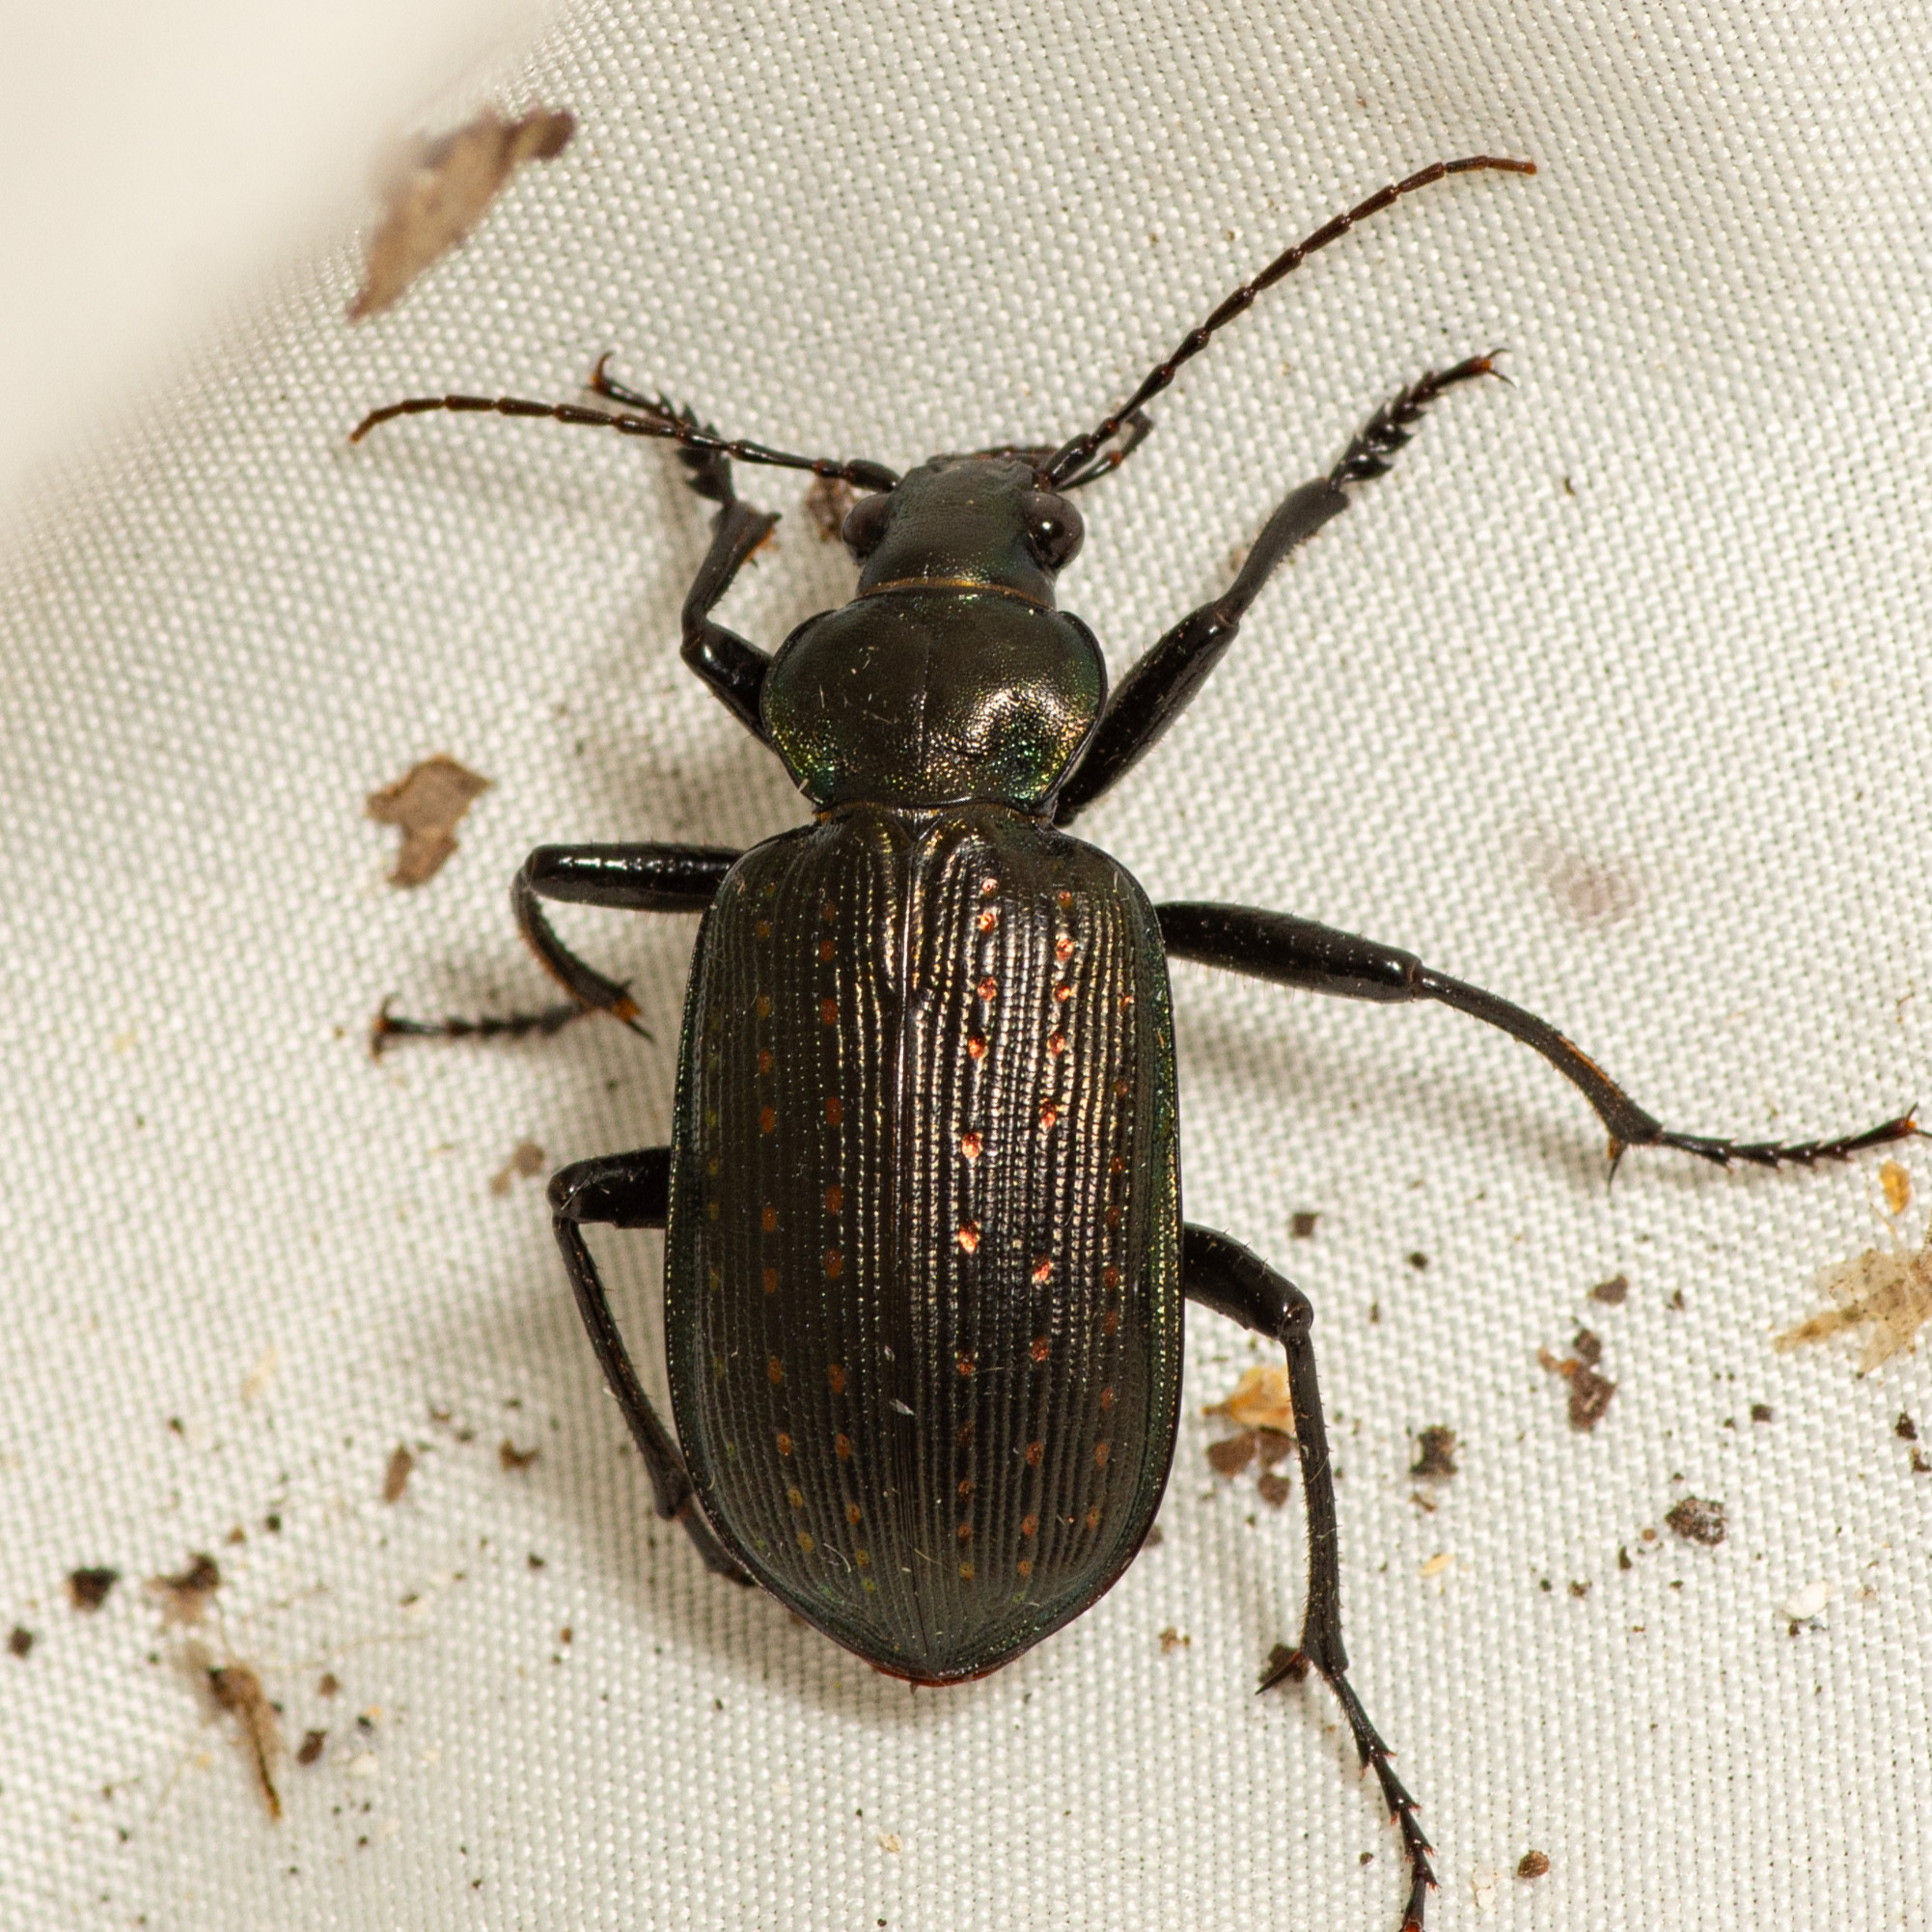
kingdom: Animalia
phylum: Arthropoda
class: Insecta
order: Coleoptera
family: Carabidae
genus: Calosoma
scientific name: Calosoma sayi
